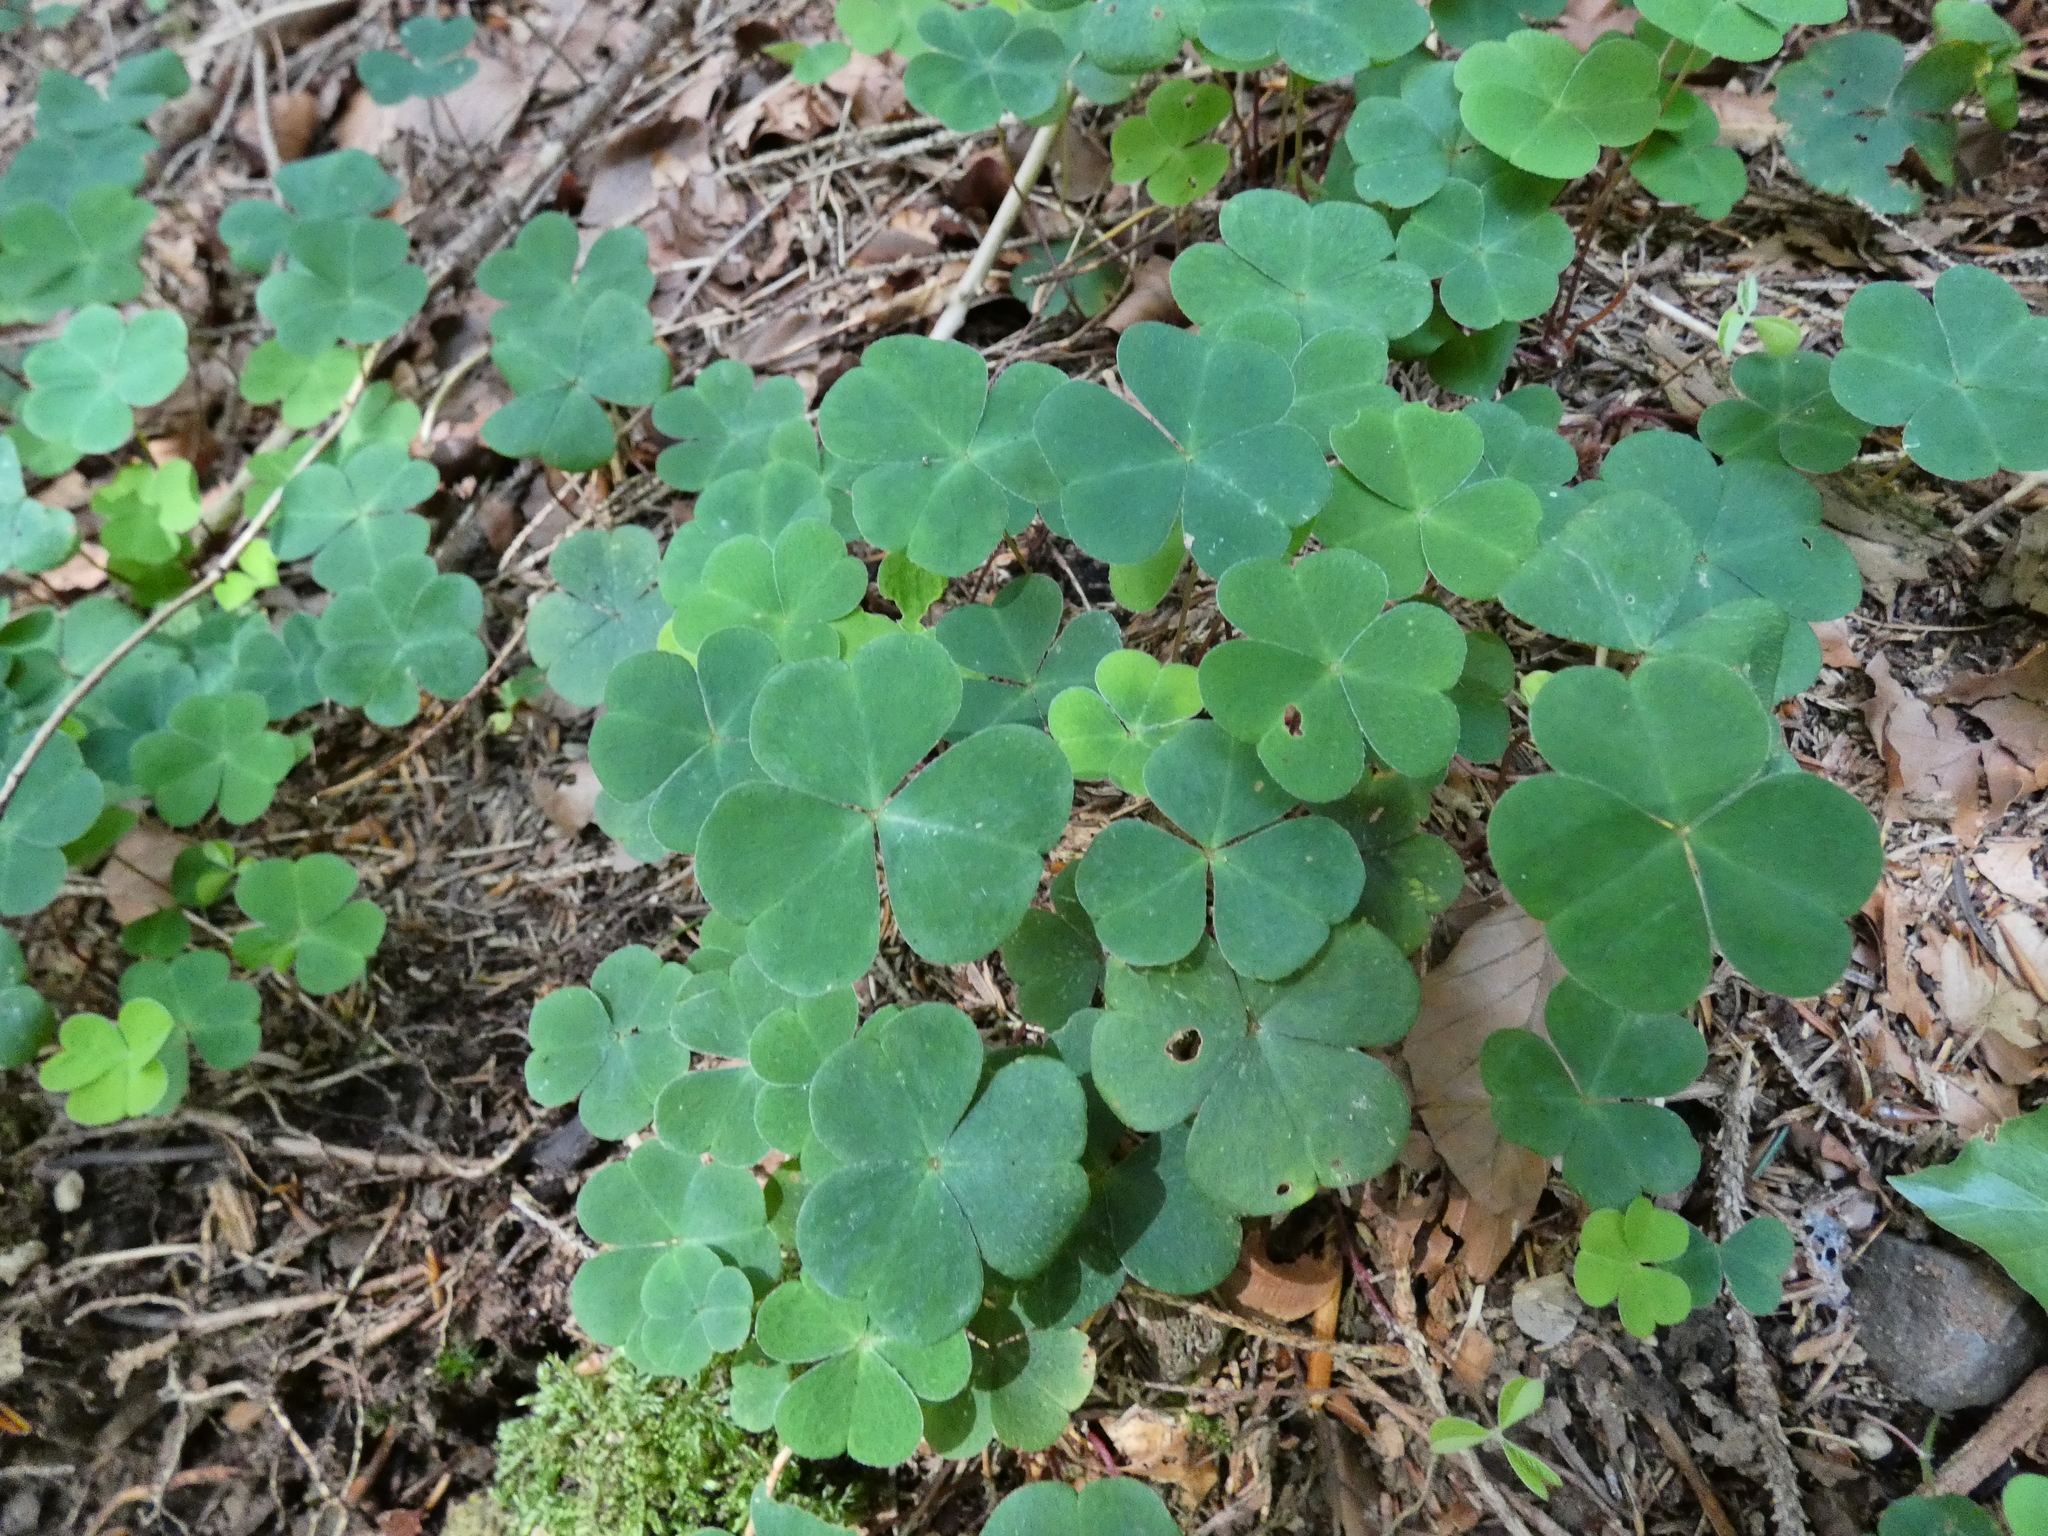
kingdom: Plantae
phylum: Tracheophyta
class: Magnoliopsida
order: Oxalidales
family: Oxalidaceae
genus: Oxalis
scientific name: Oxalis acetosella
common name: Wood-sorrel
